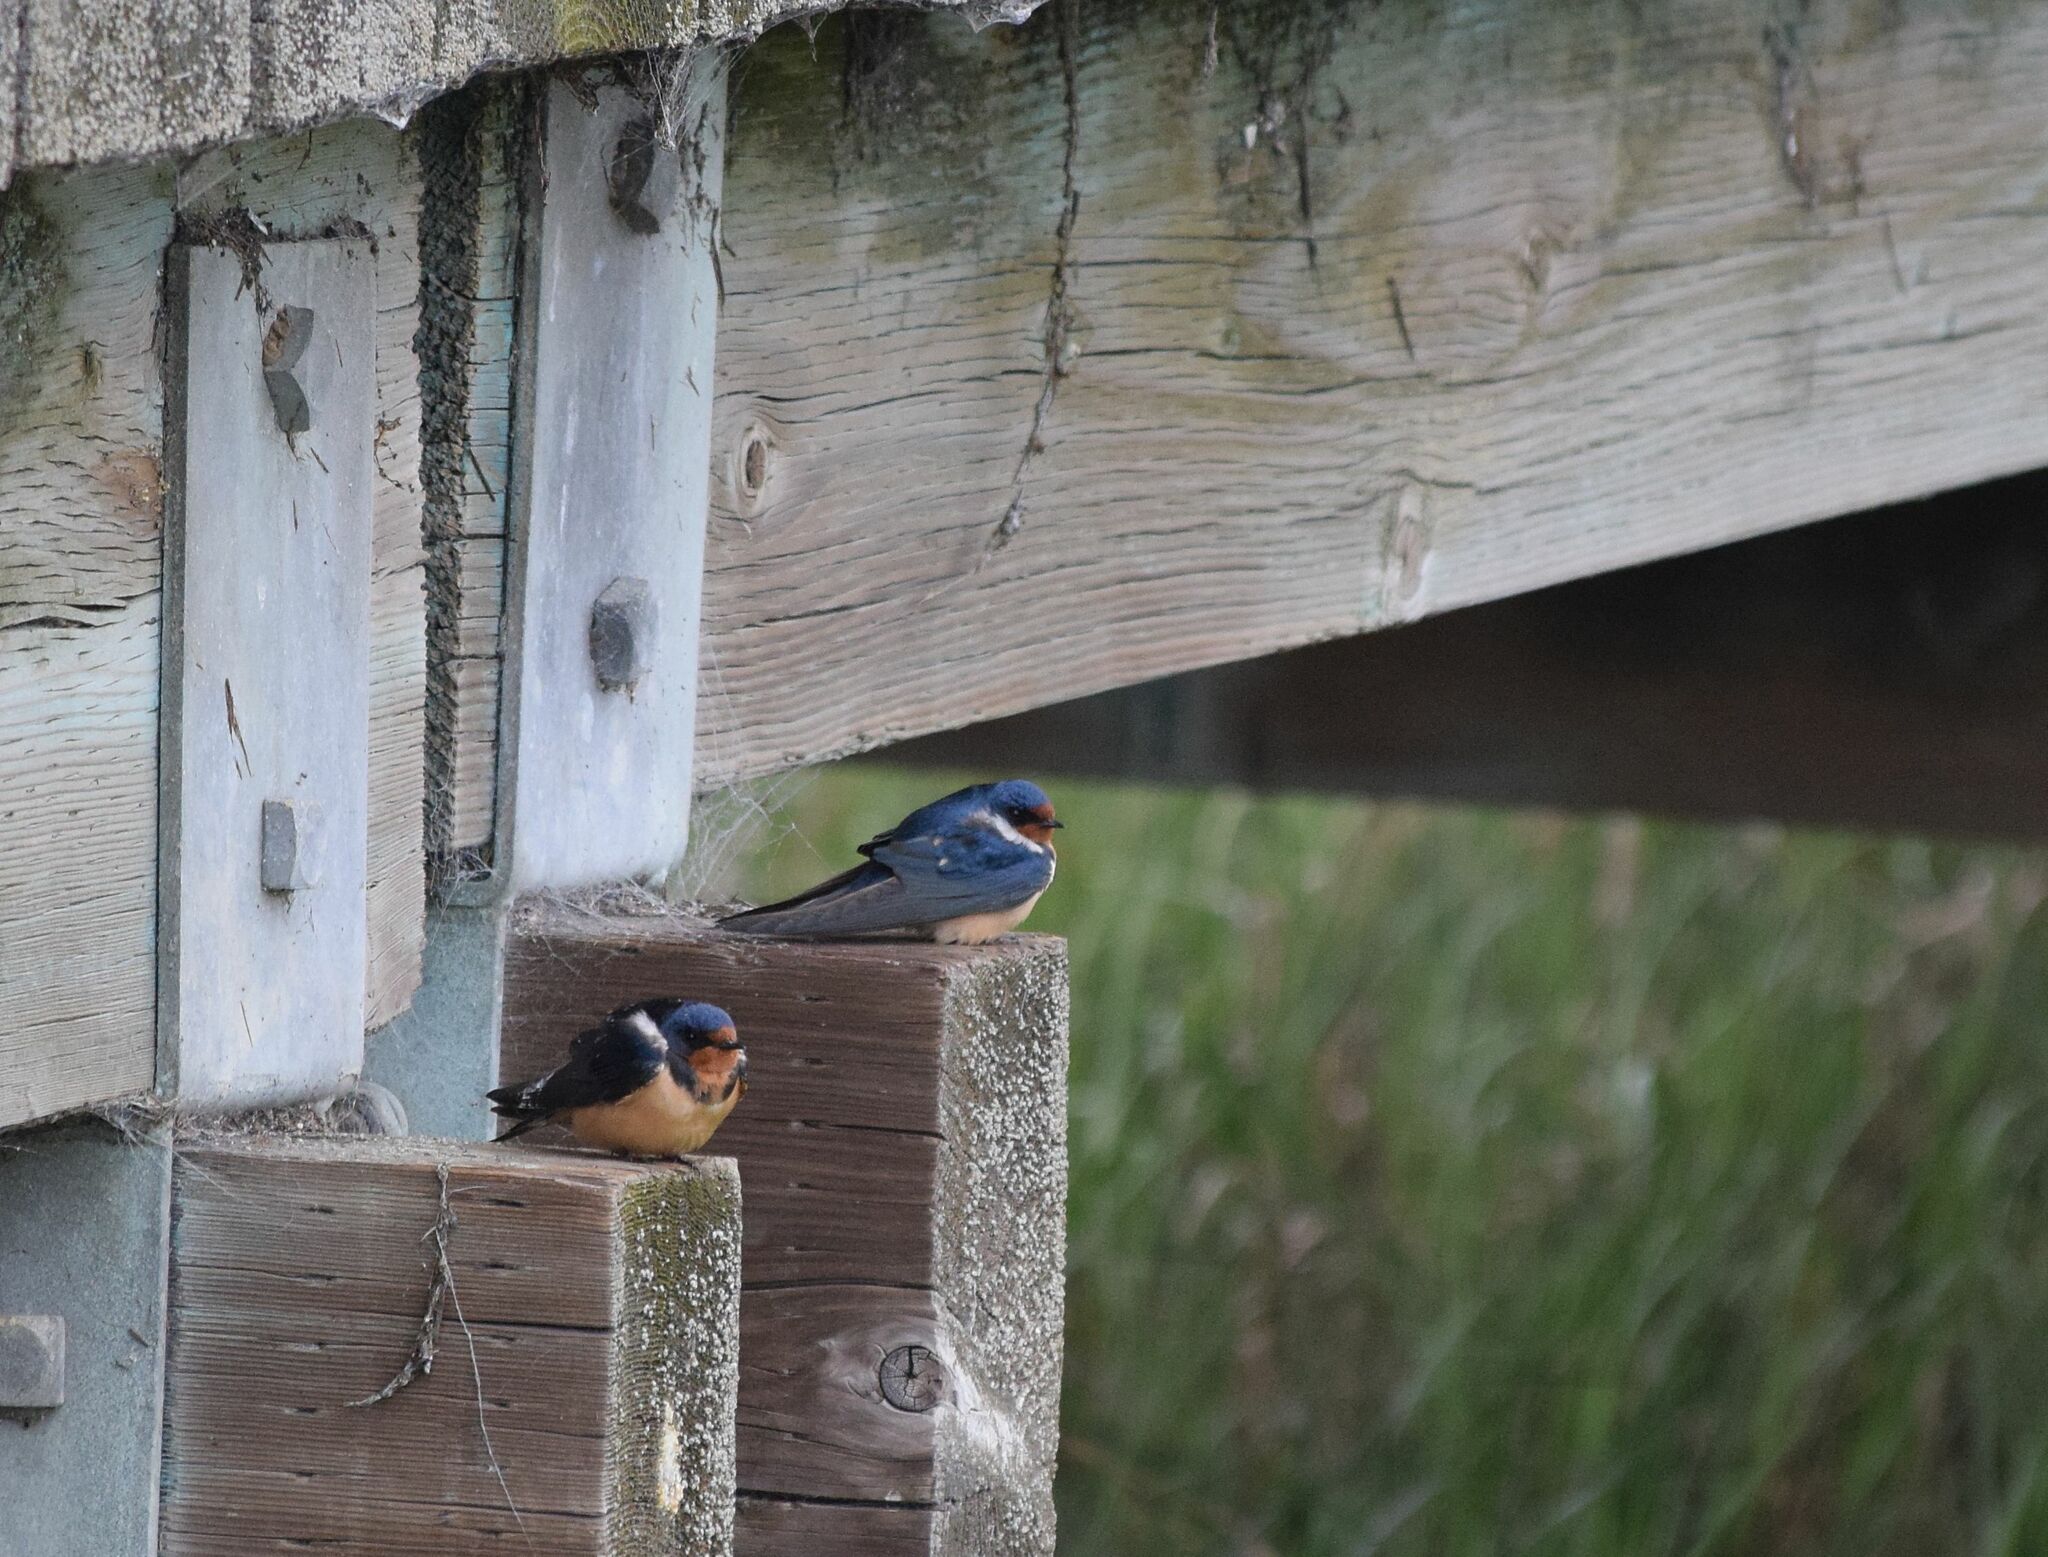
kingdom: Animalia
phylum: Chordata
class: Aves
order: Passeriformes
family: Hirundinidae
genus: Hirundo
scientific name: Hirundo rustica
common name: Barn swallow
